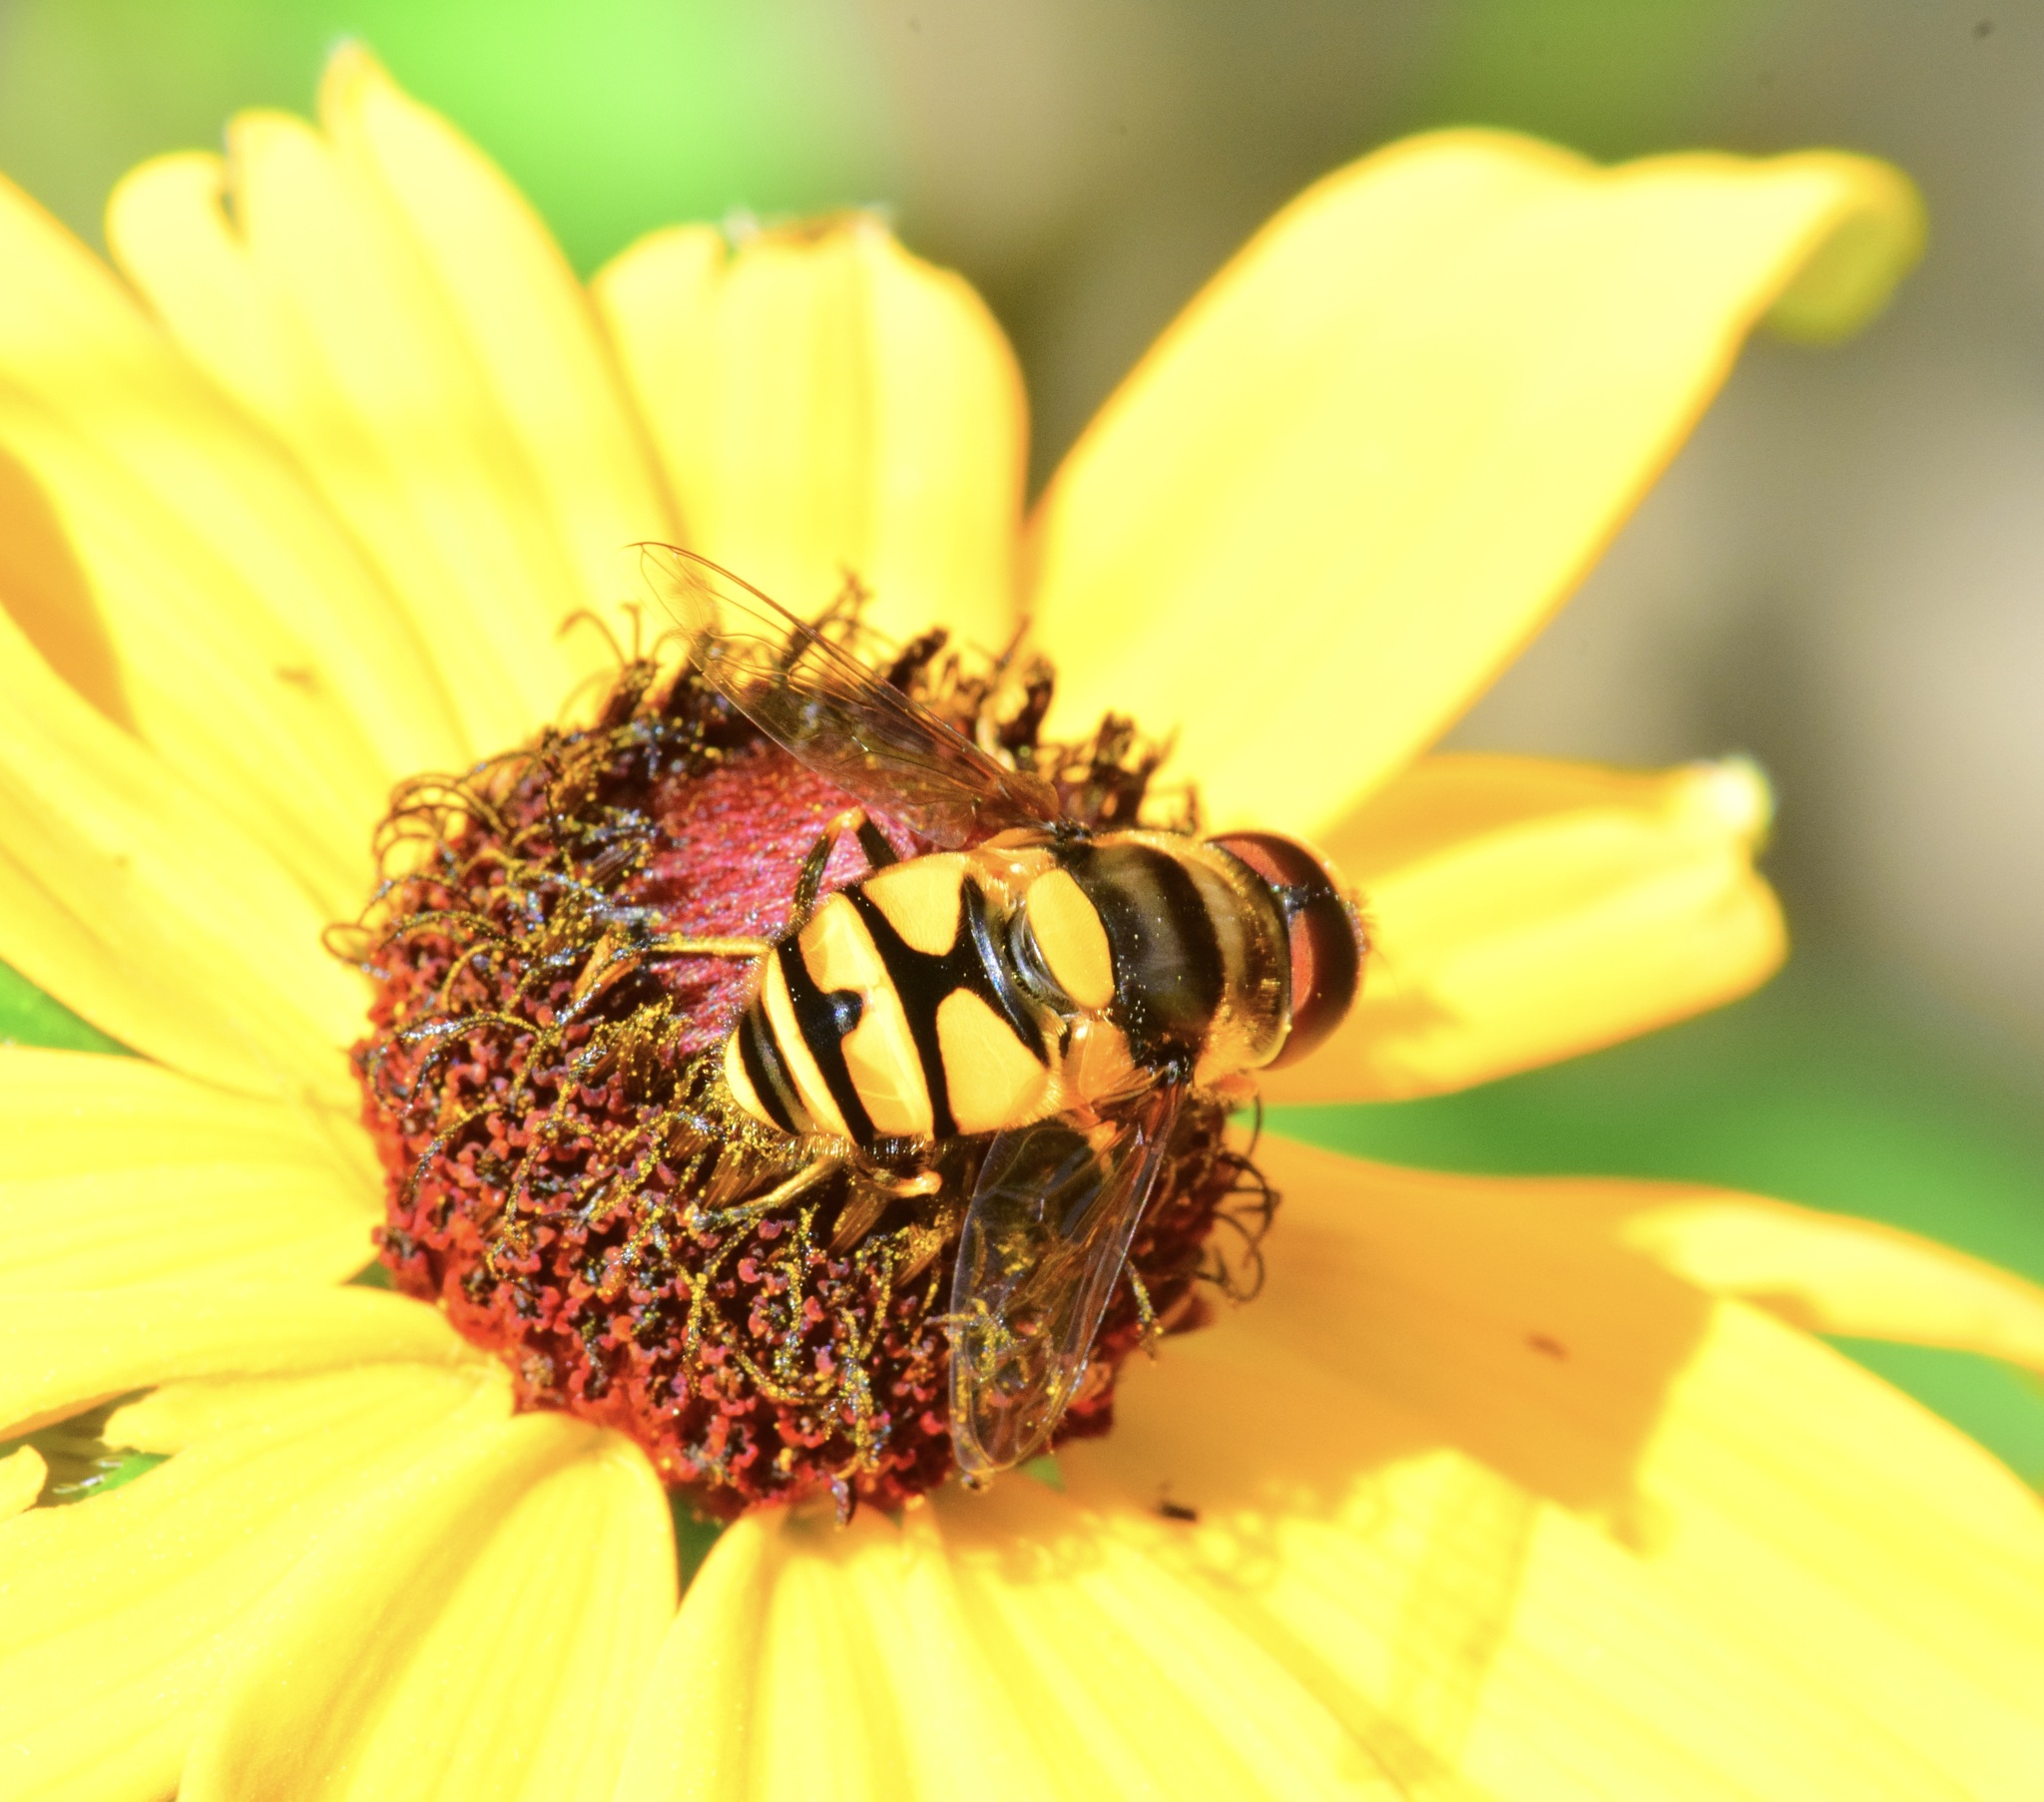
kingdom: Animalia
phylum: Arthropoda
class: Insecta
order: Diptera
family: Syrphidae
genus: Eristalis
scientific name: Eristalis transversa
